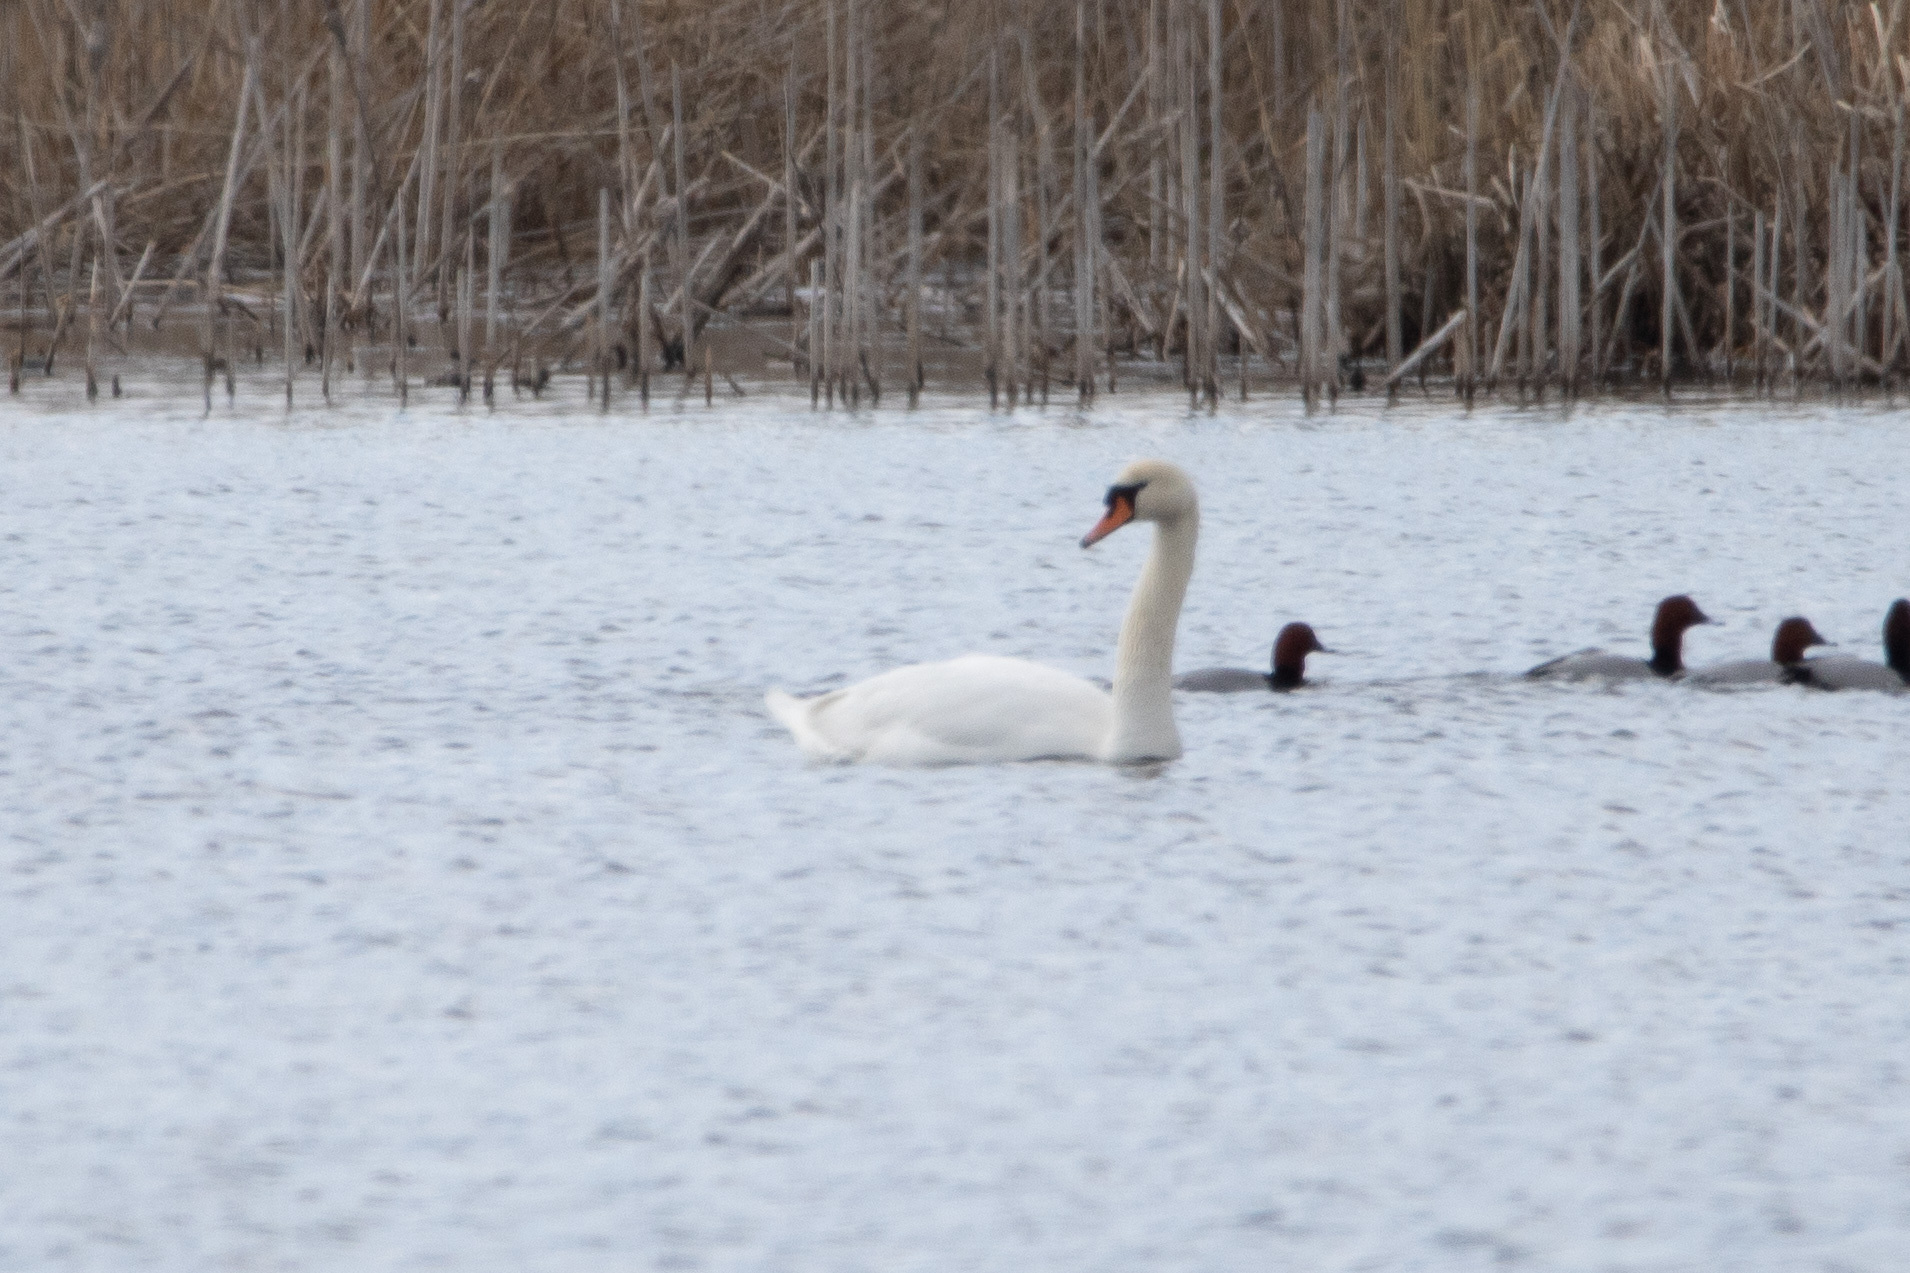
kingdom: Animalia
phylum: Chordata
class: Aves
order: Anseriformes
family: Anatidae
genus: Cygnus
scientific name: Cygnus olor
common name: Mute swan
